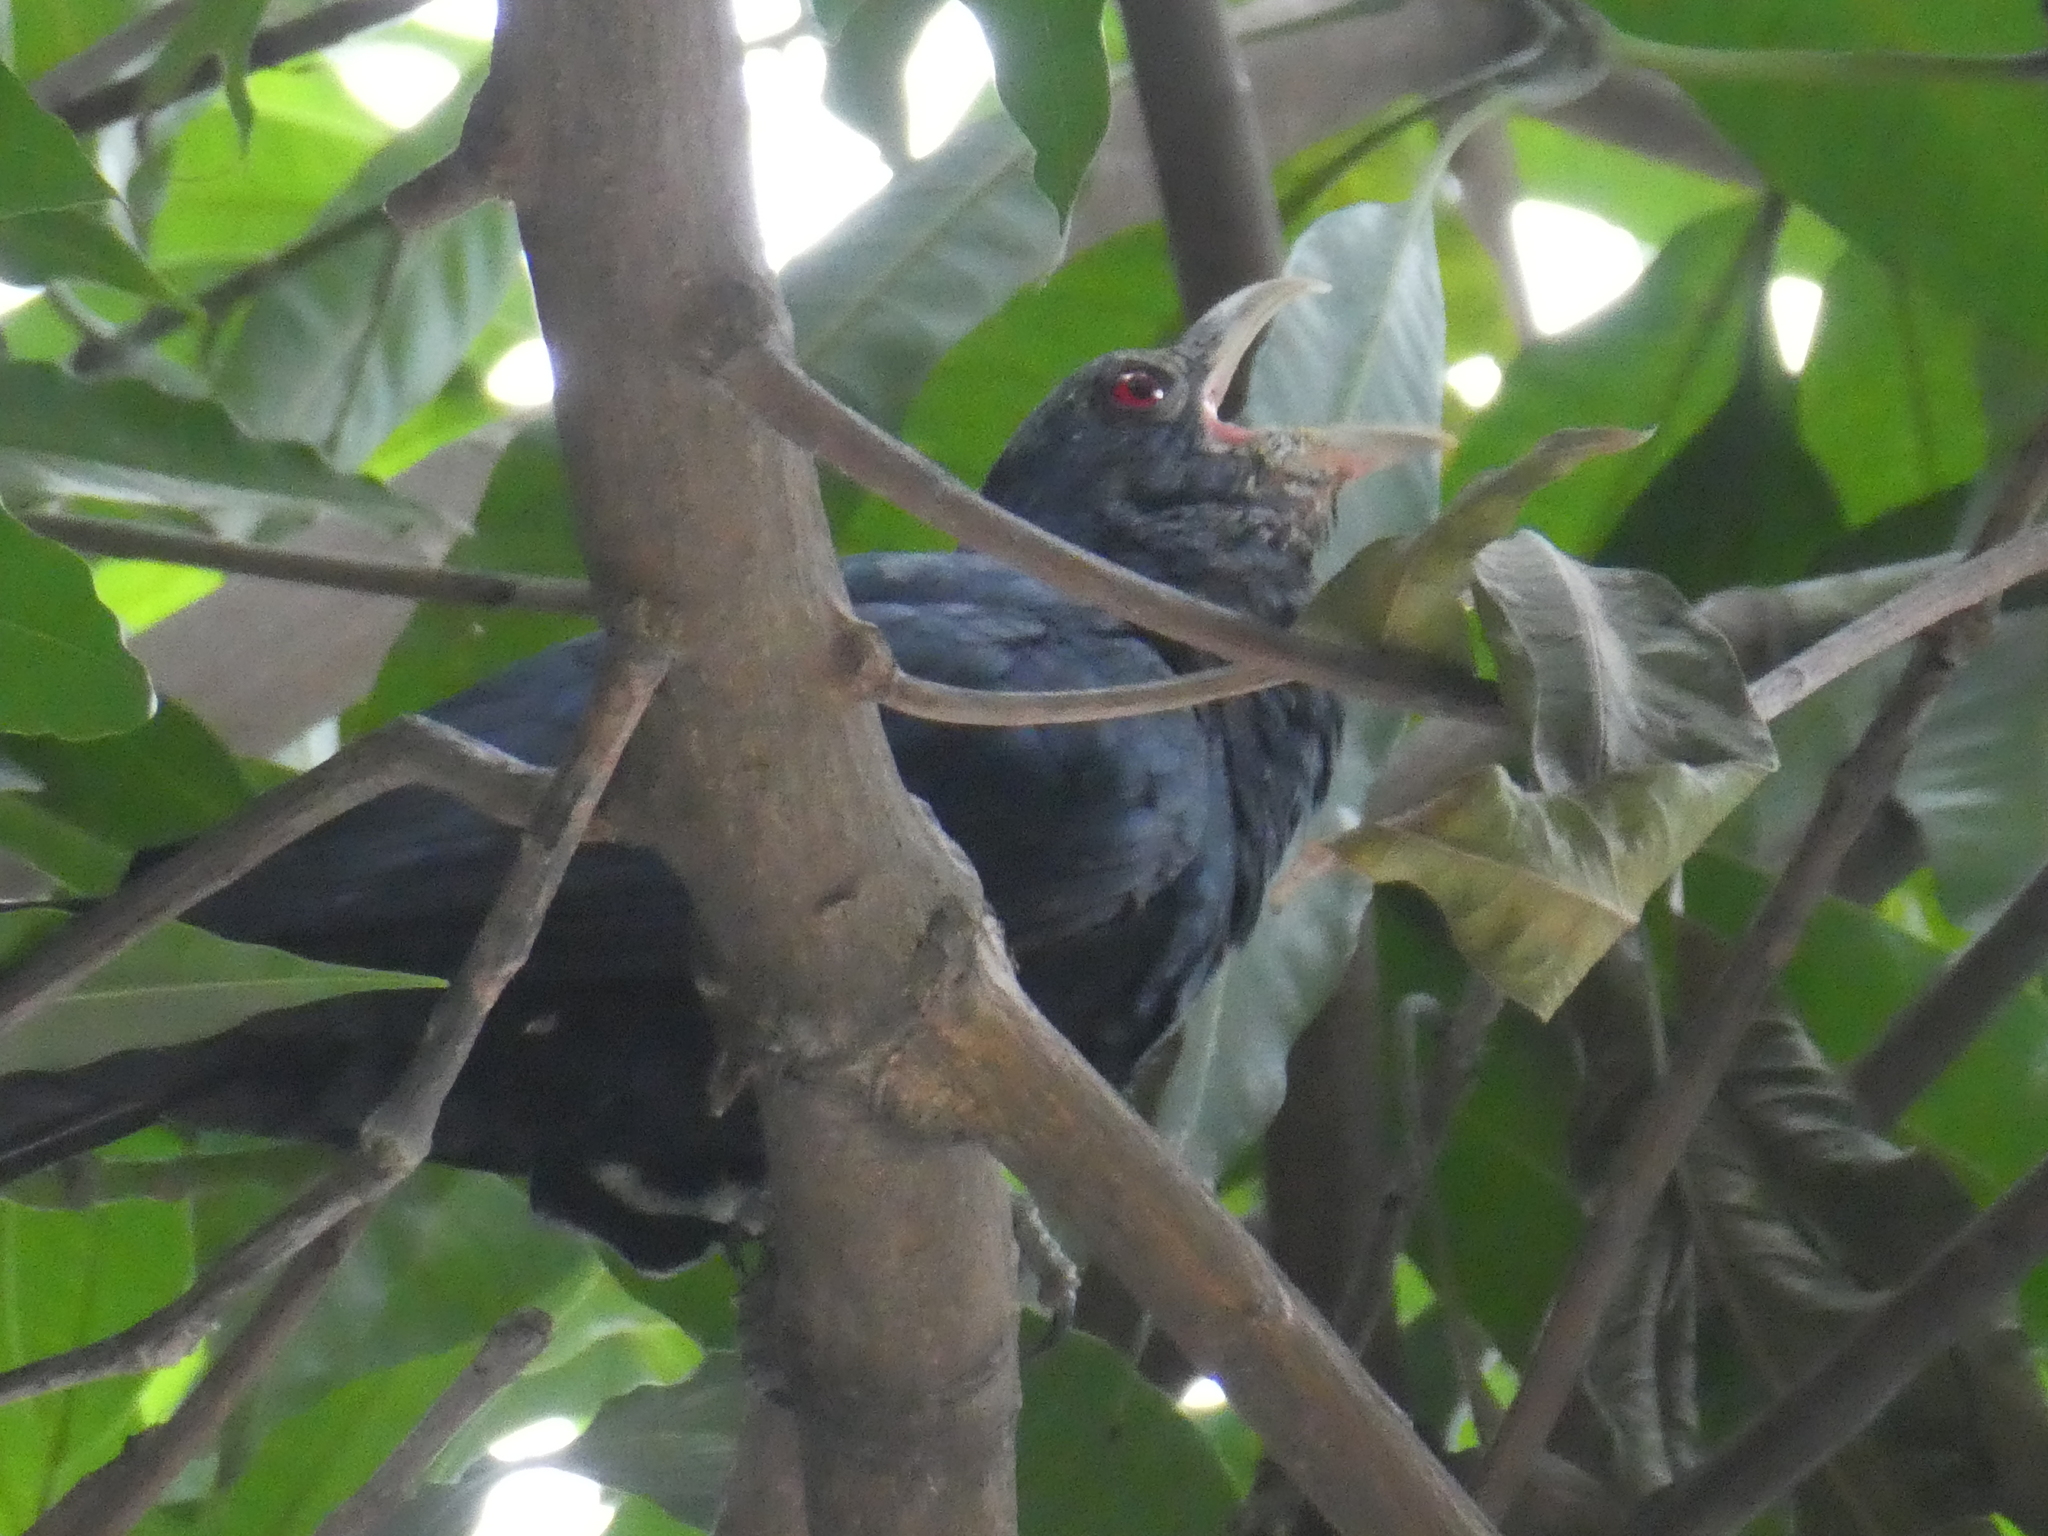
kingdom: Animalia
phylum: Chordata
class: Aves
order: Cuculiformes
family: Cuculidae
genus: Eudynamys
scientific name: Eudynamys scolopaceus
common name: Asian koel
